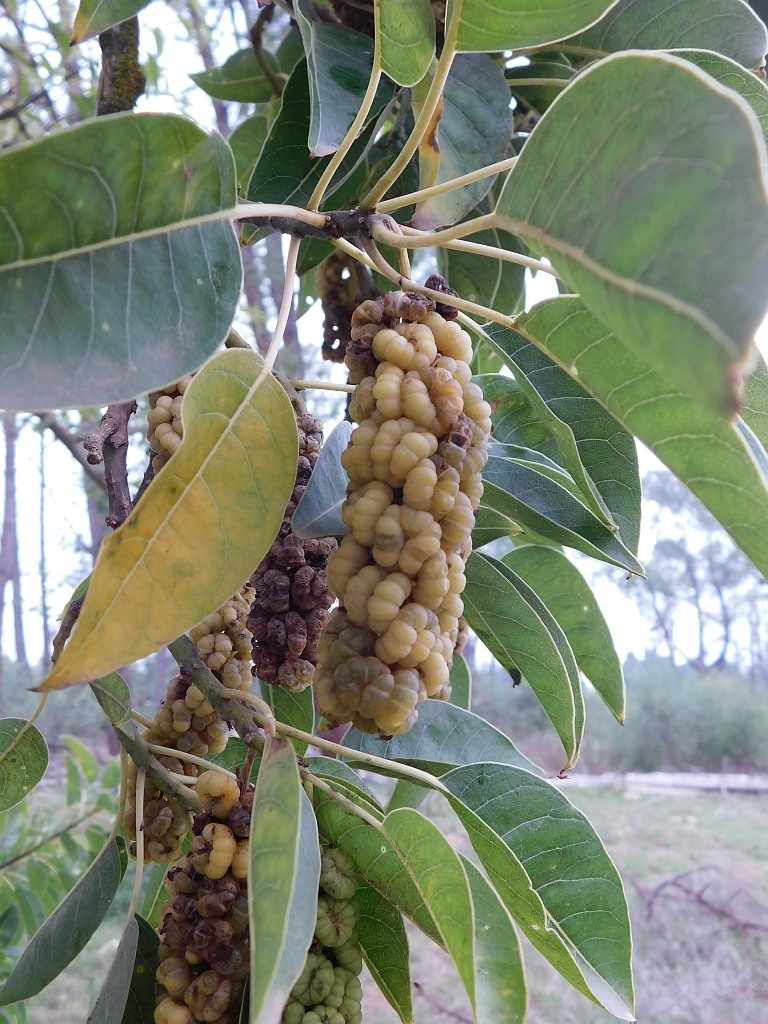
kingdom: Plantae
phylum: Tracheophyta
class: Magnoliopsida
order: Caryophyllales
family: Phytolaccaceae
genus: Phytolacca
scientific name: Phytolacca dioica
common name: Pokeweed
